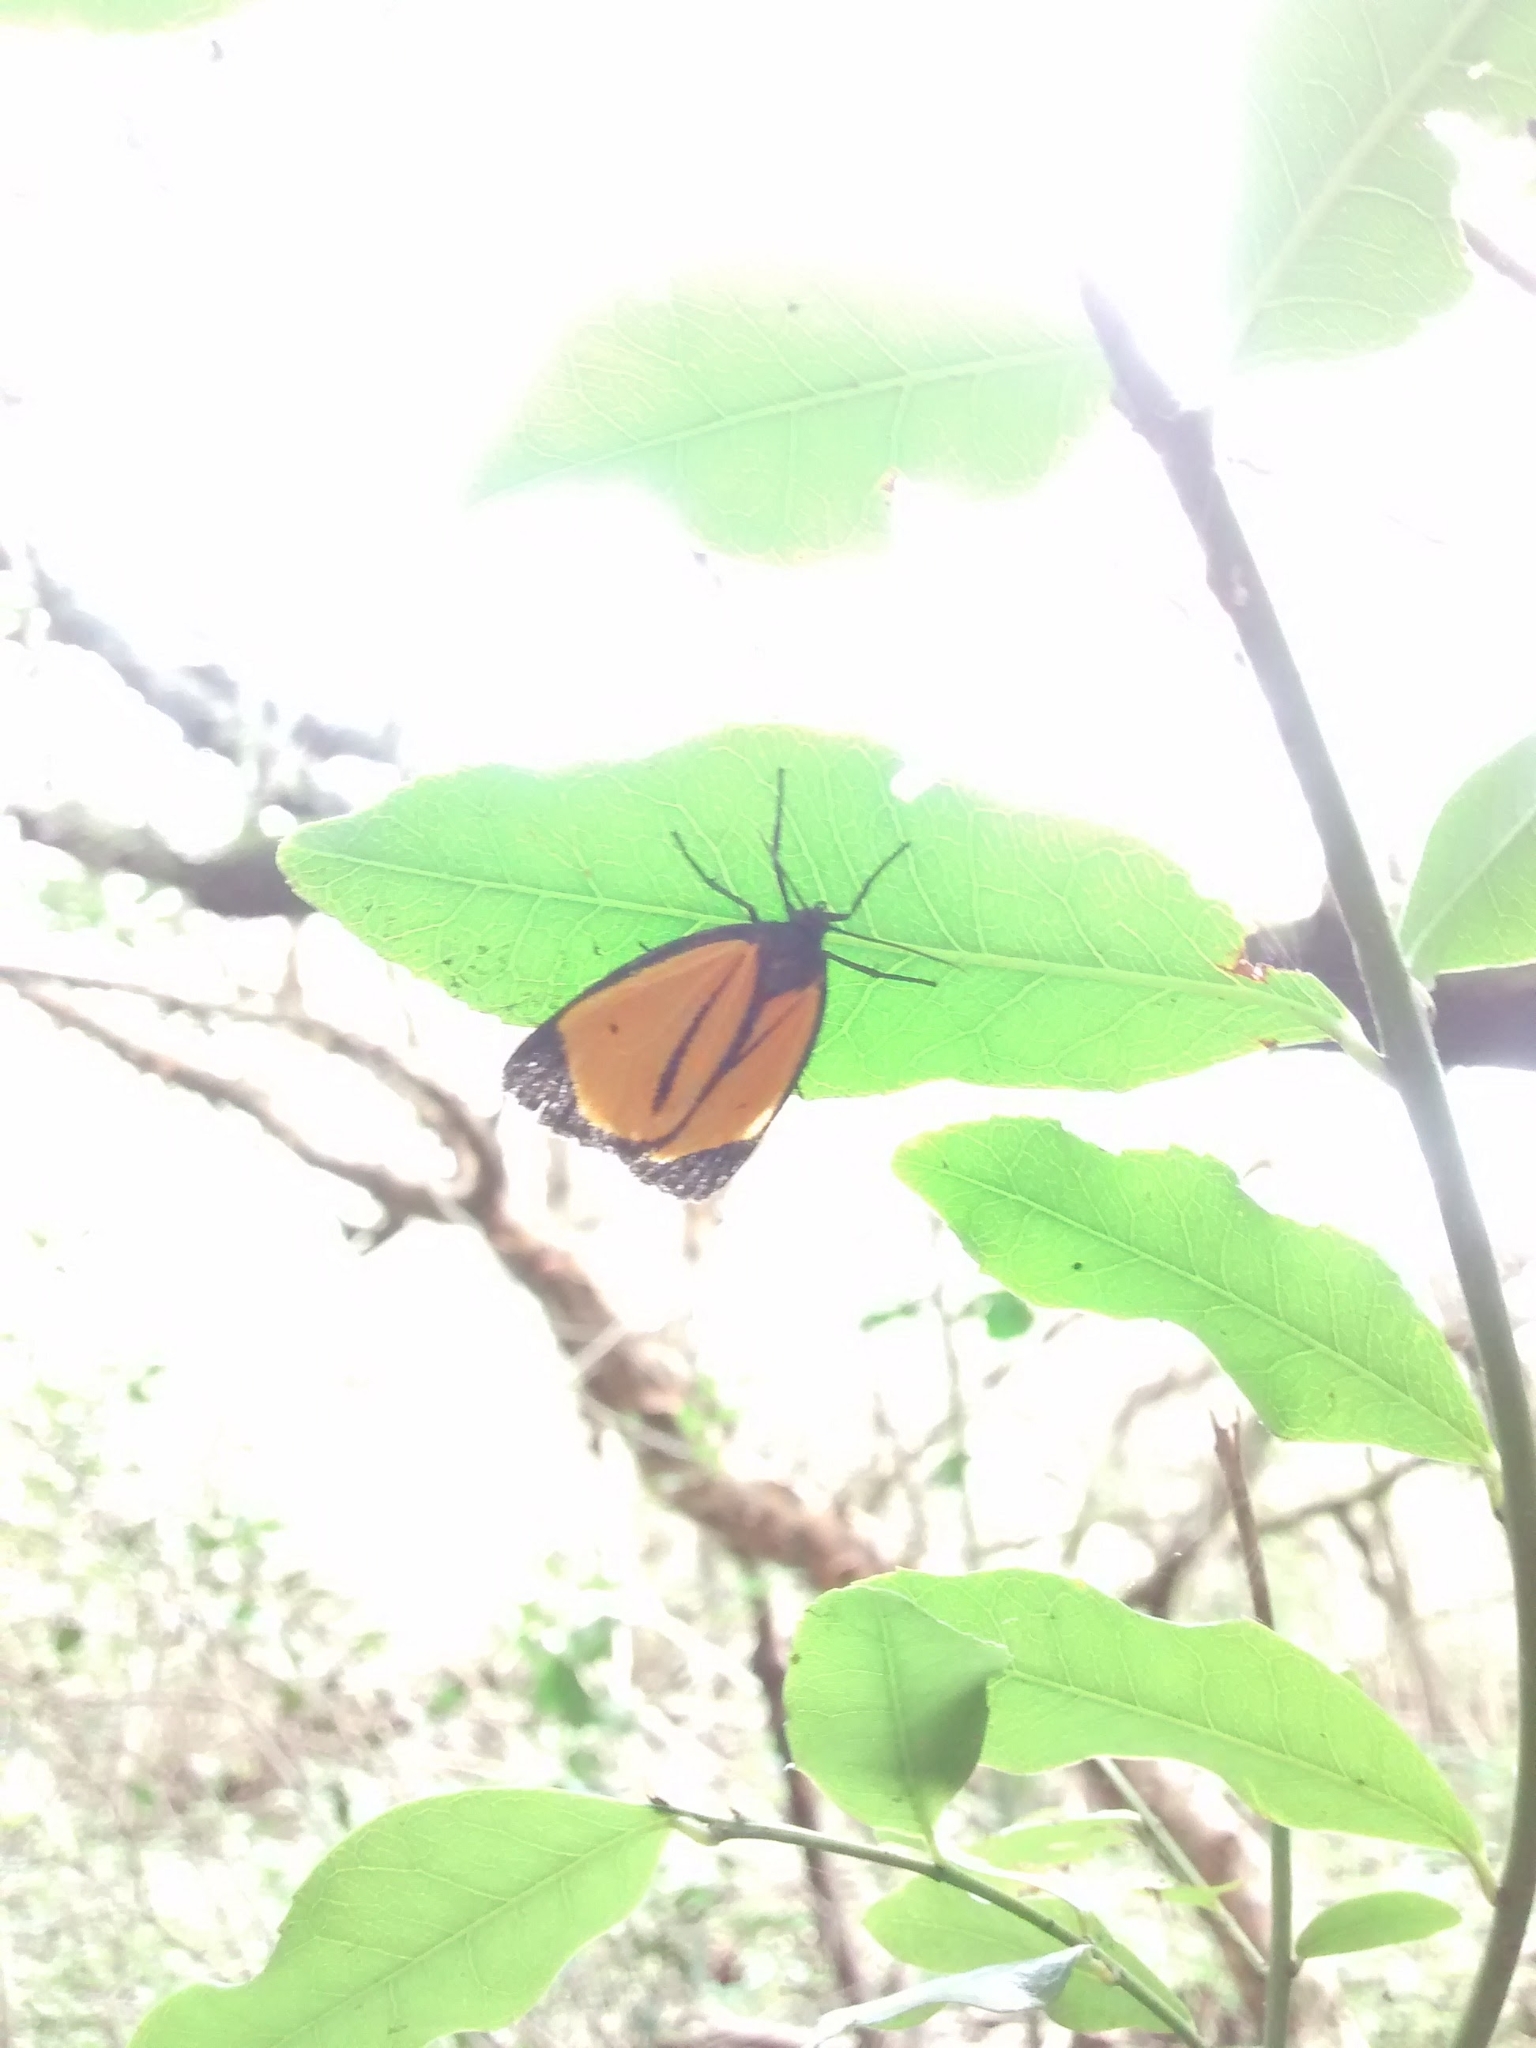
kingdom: Animalia
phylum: Arthropoda
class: Insecta
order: Lepidoptera
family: Erebidae
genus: Paratype
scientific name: Paratype univitta
